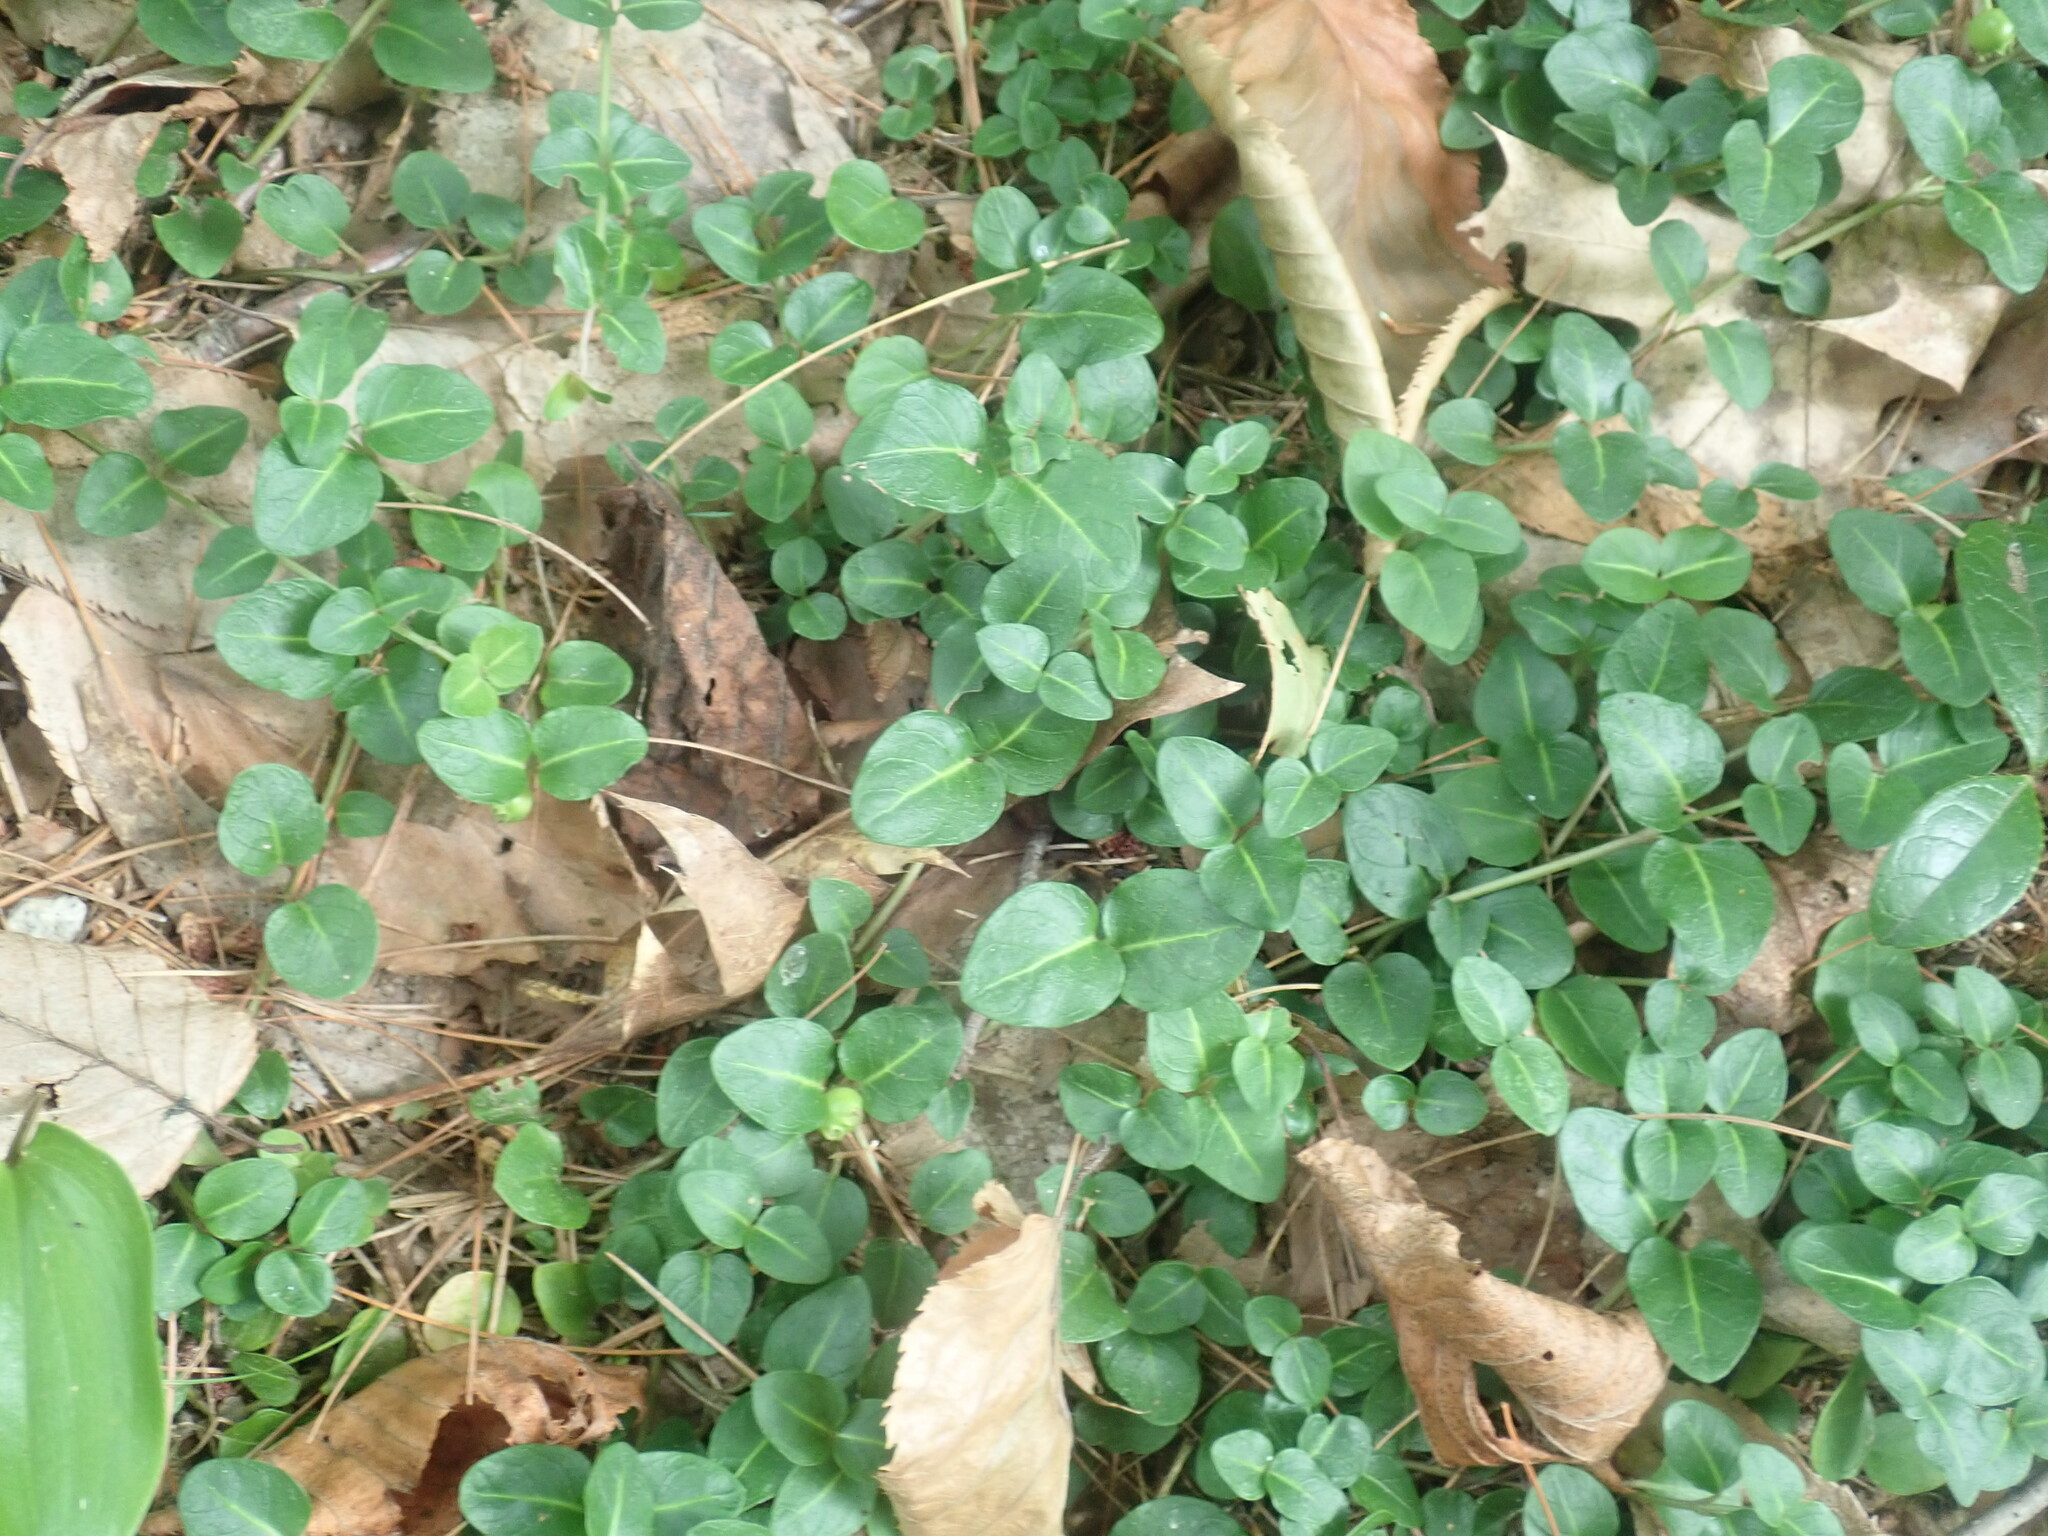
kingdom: Plantae
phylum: Tracheophyta
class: Magnoliopsida
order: Gentianales
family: Rubiaceae
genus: Mitchella
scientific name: Mitchella repens
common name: Partridge-berry
